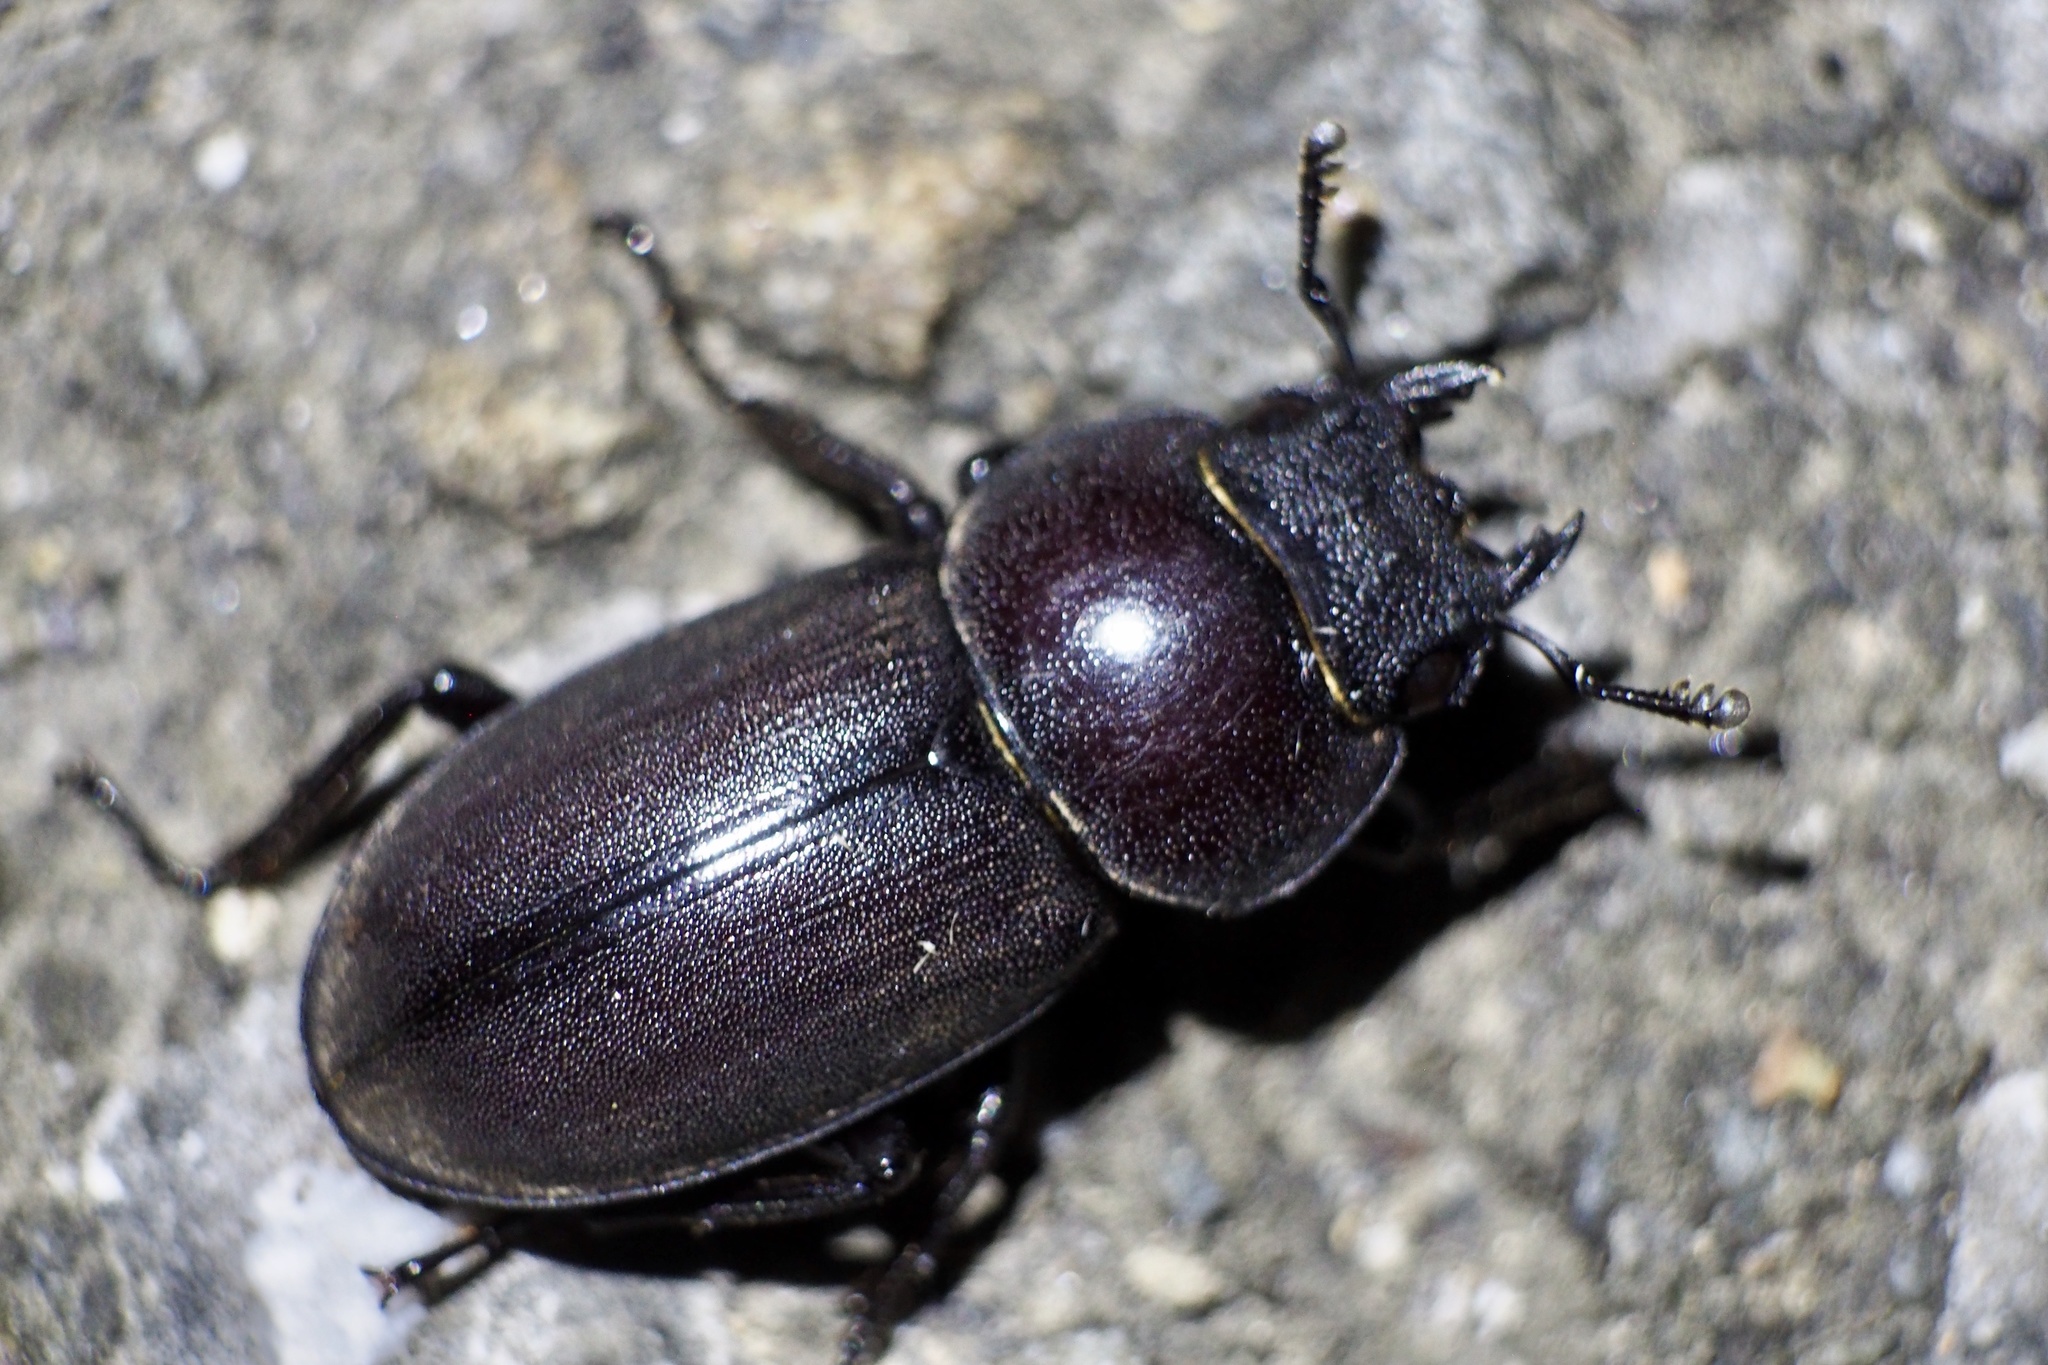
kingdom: Animalia
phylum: Arthropoda
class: Insecta
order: Coleoptera
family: Lucanidae
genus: Dorcus
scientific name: Dorcus rectus
